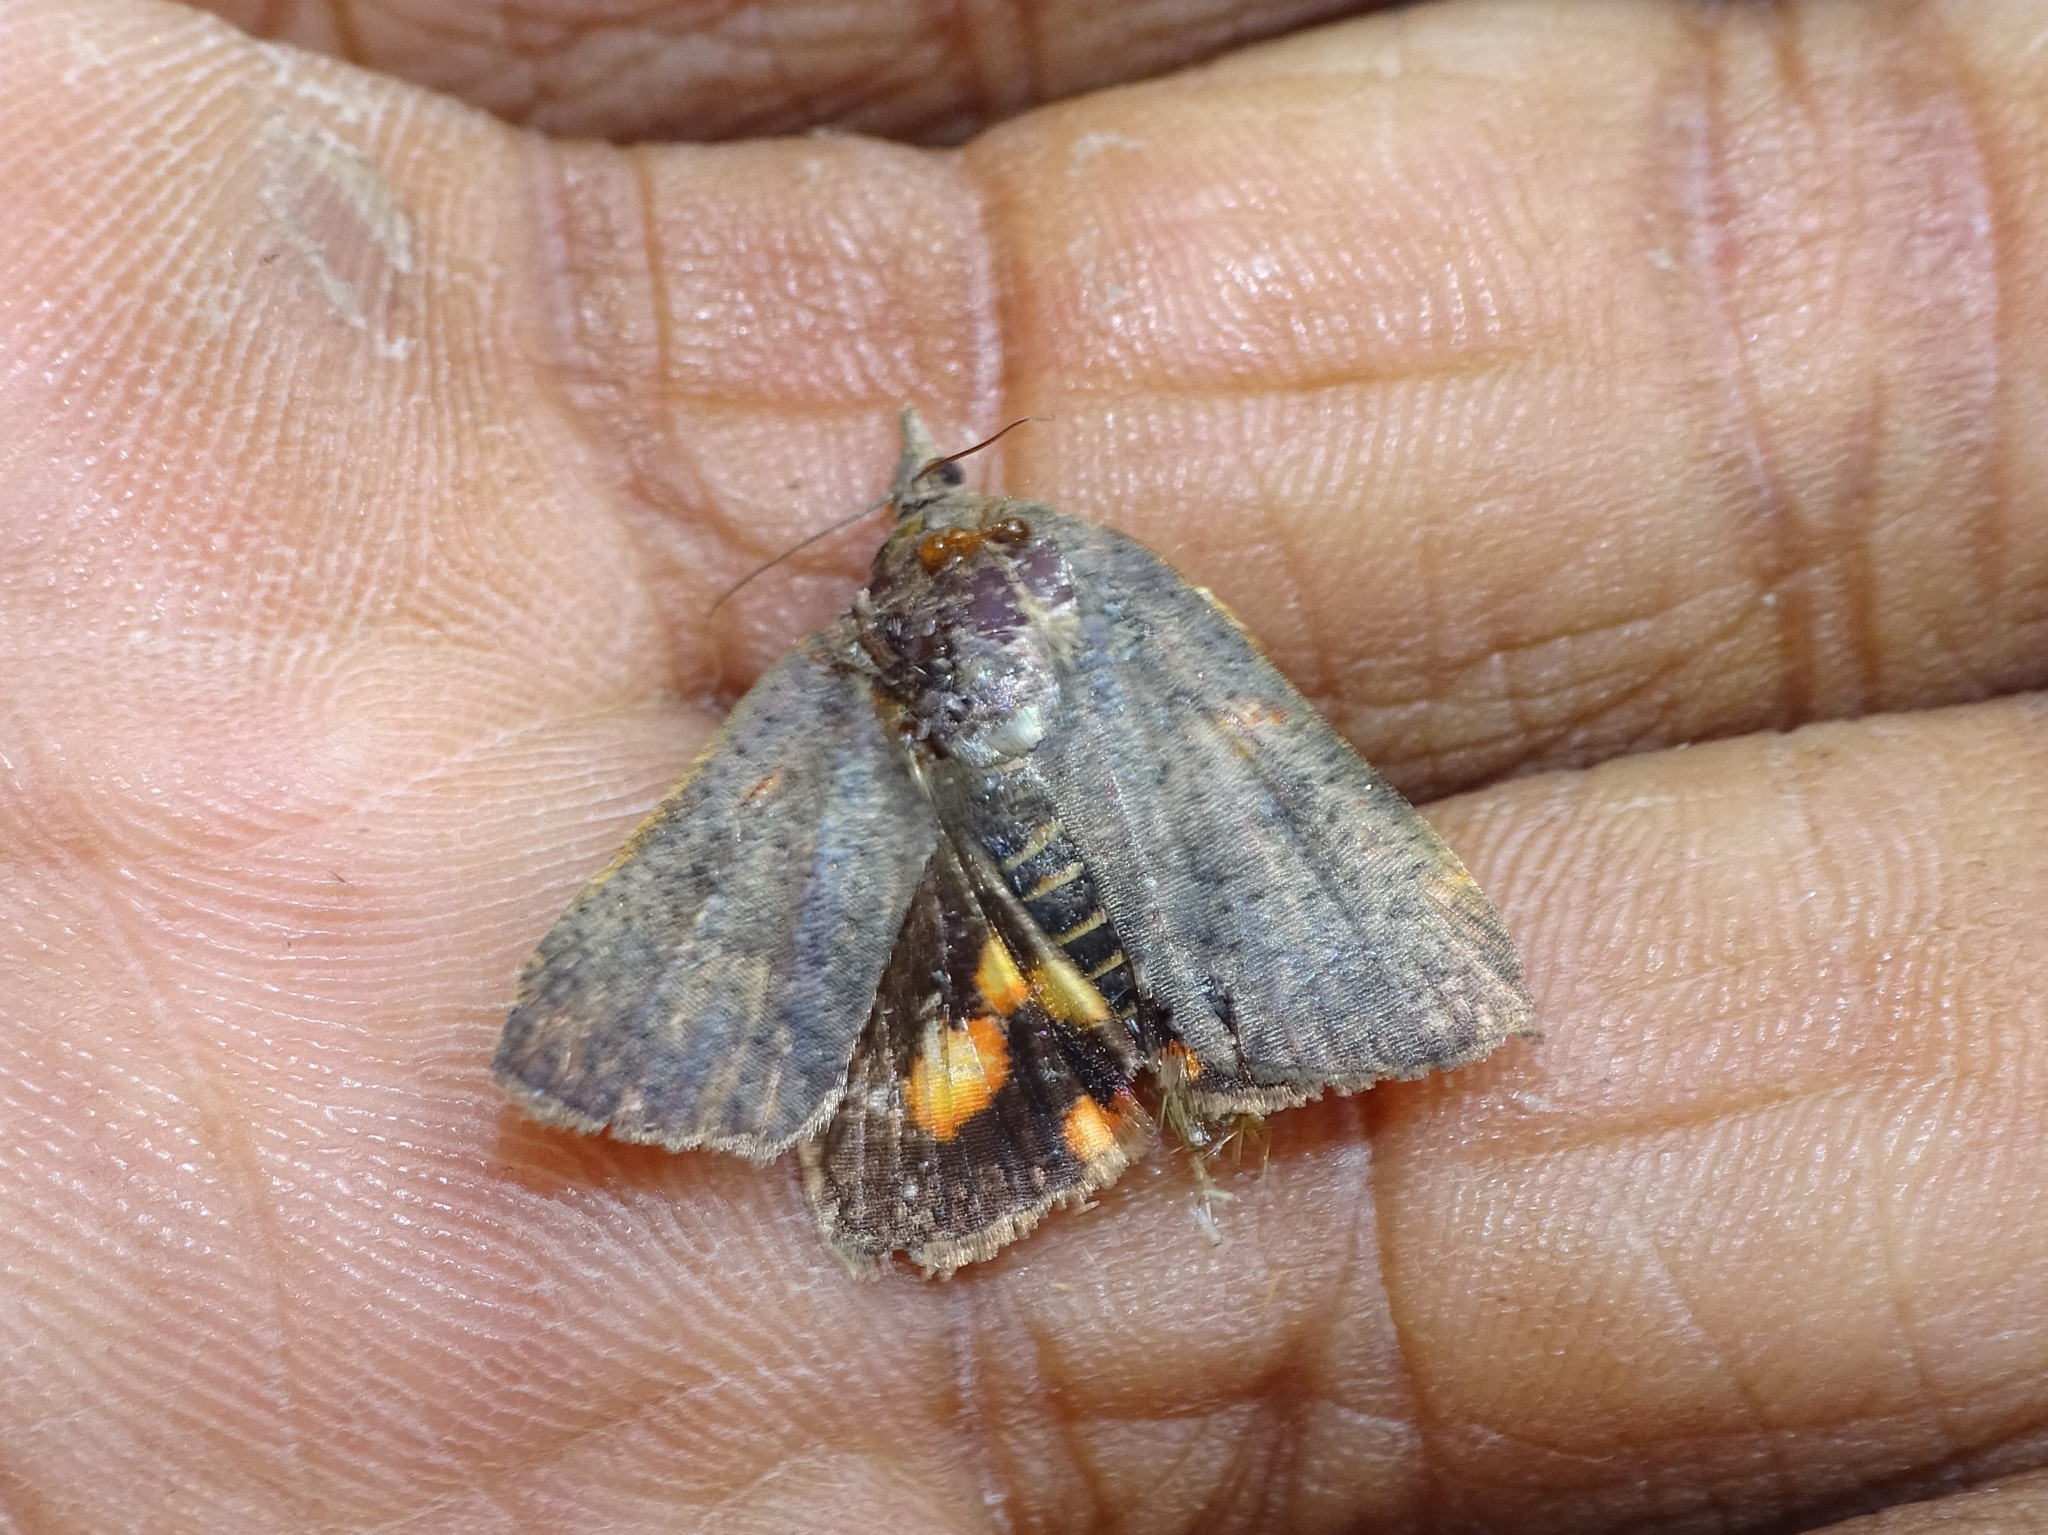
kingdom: Animalia
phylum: Arthropoda
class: Insecta
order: Lepidoptera
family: Hyblaeidae
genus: Hyblaea
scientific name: Hyblaea puera
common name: Teak defoliator moth
